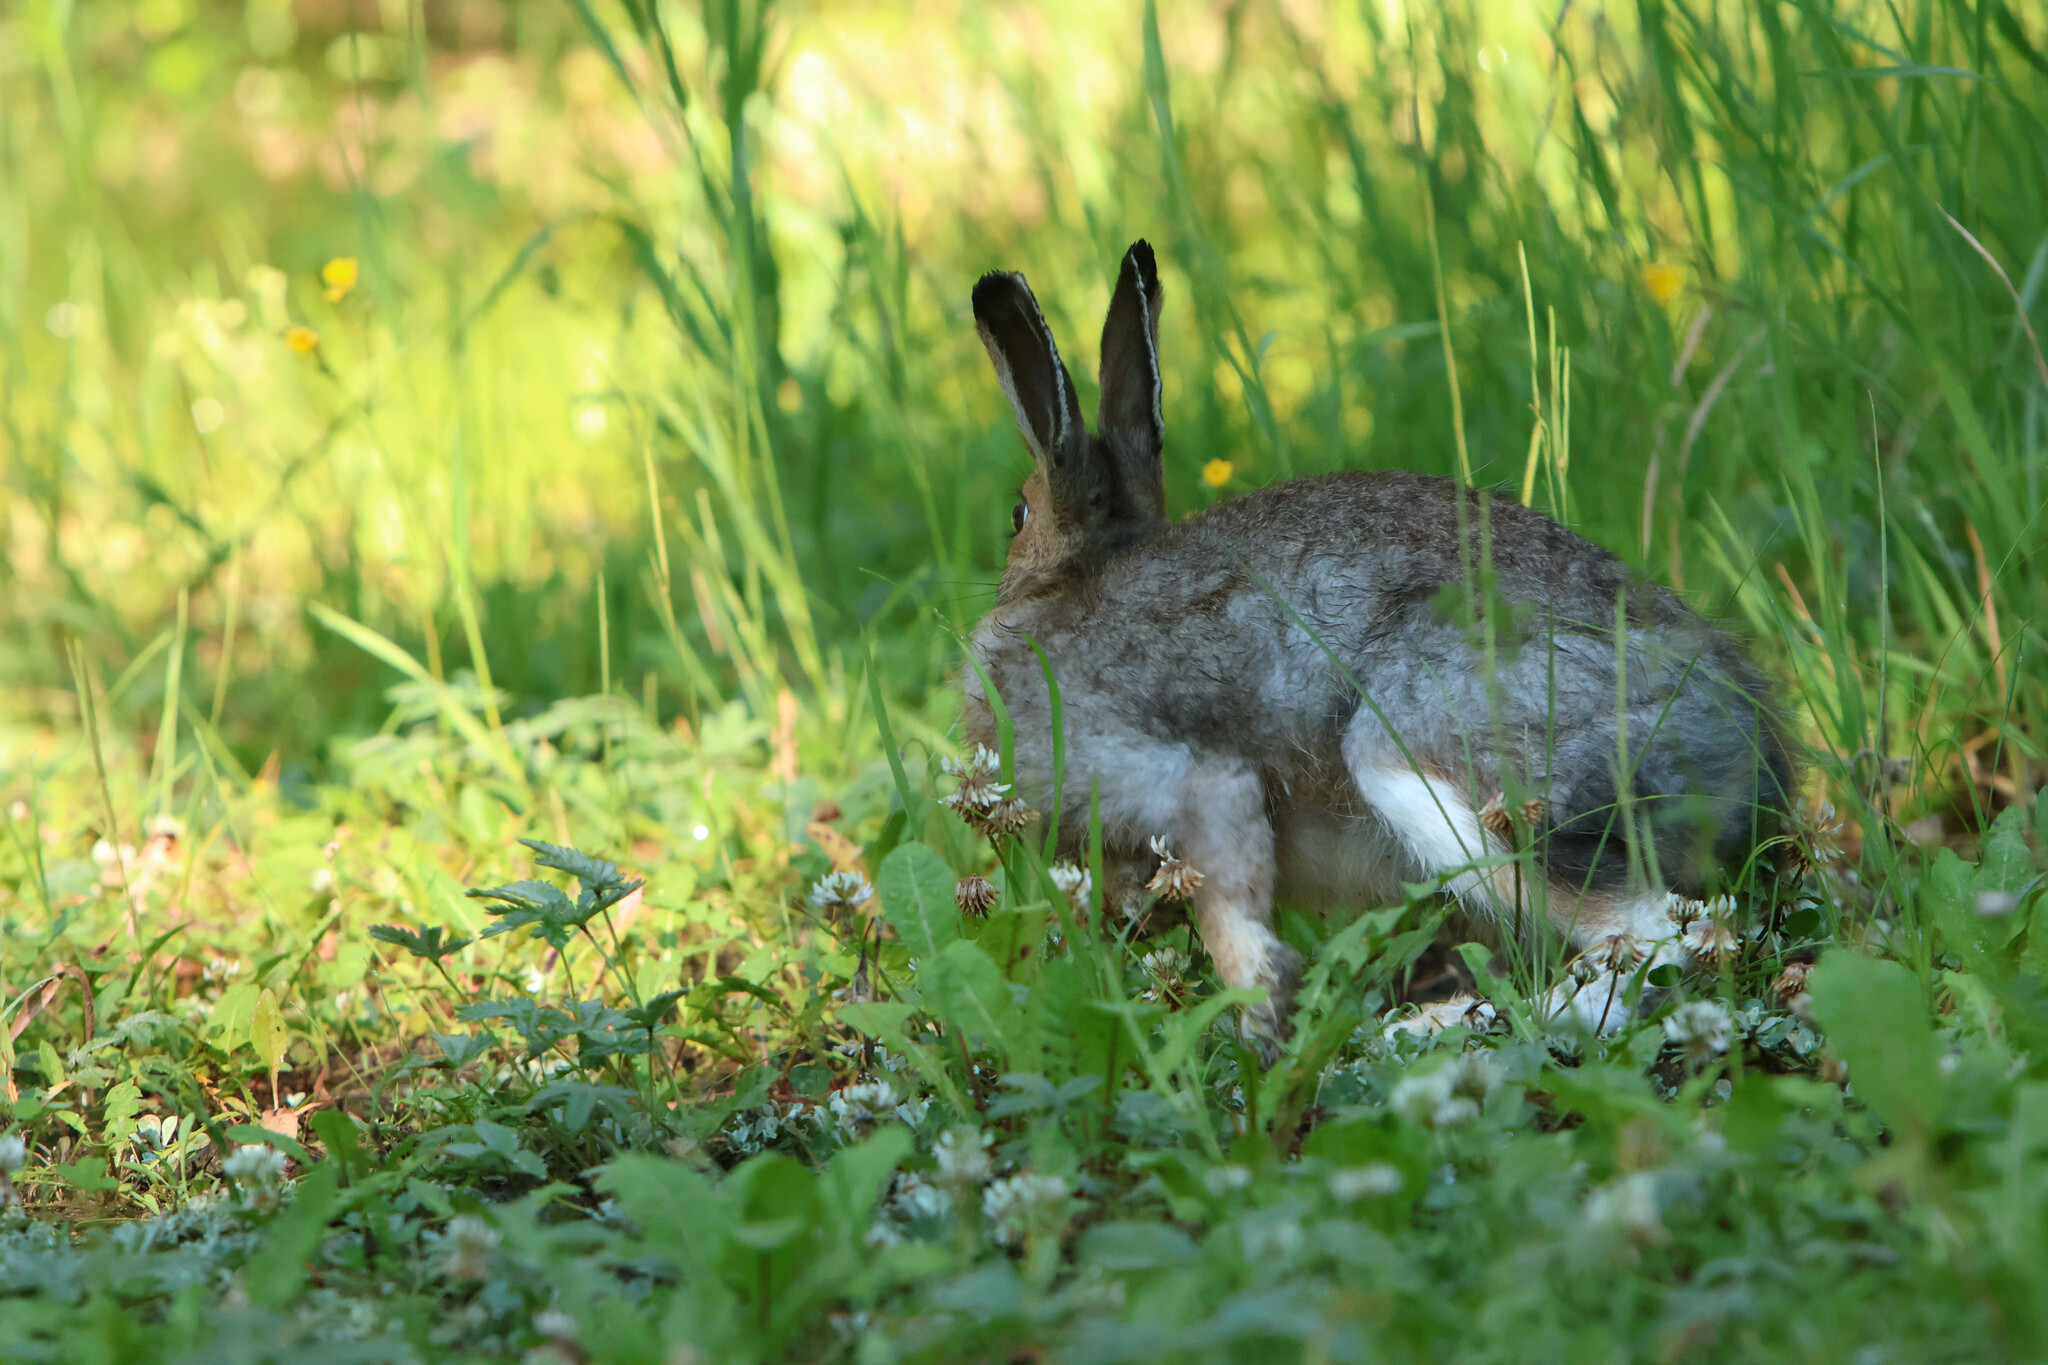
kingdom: Animalia
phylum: Chordata
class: Mammalia
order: Lagomorpha
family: Leporidae
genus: Lepus
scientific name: Lepus americanus
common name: Snowshoe hare
